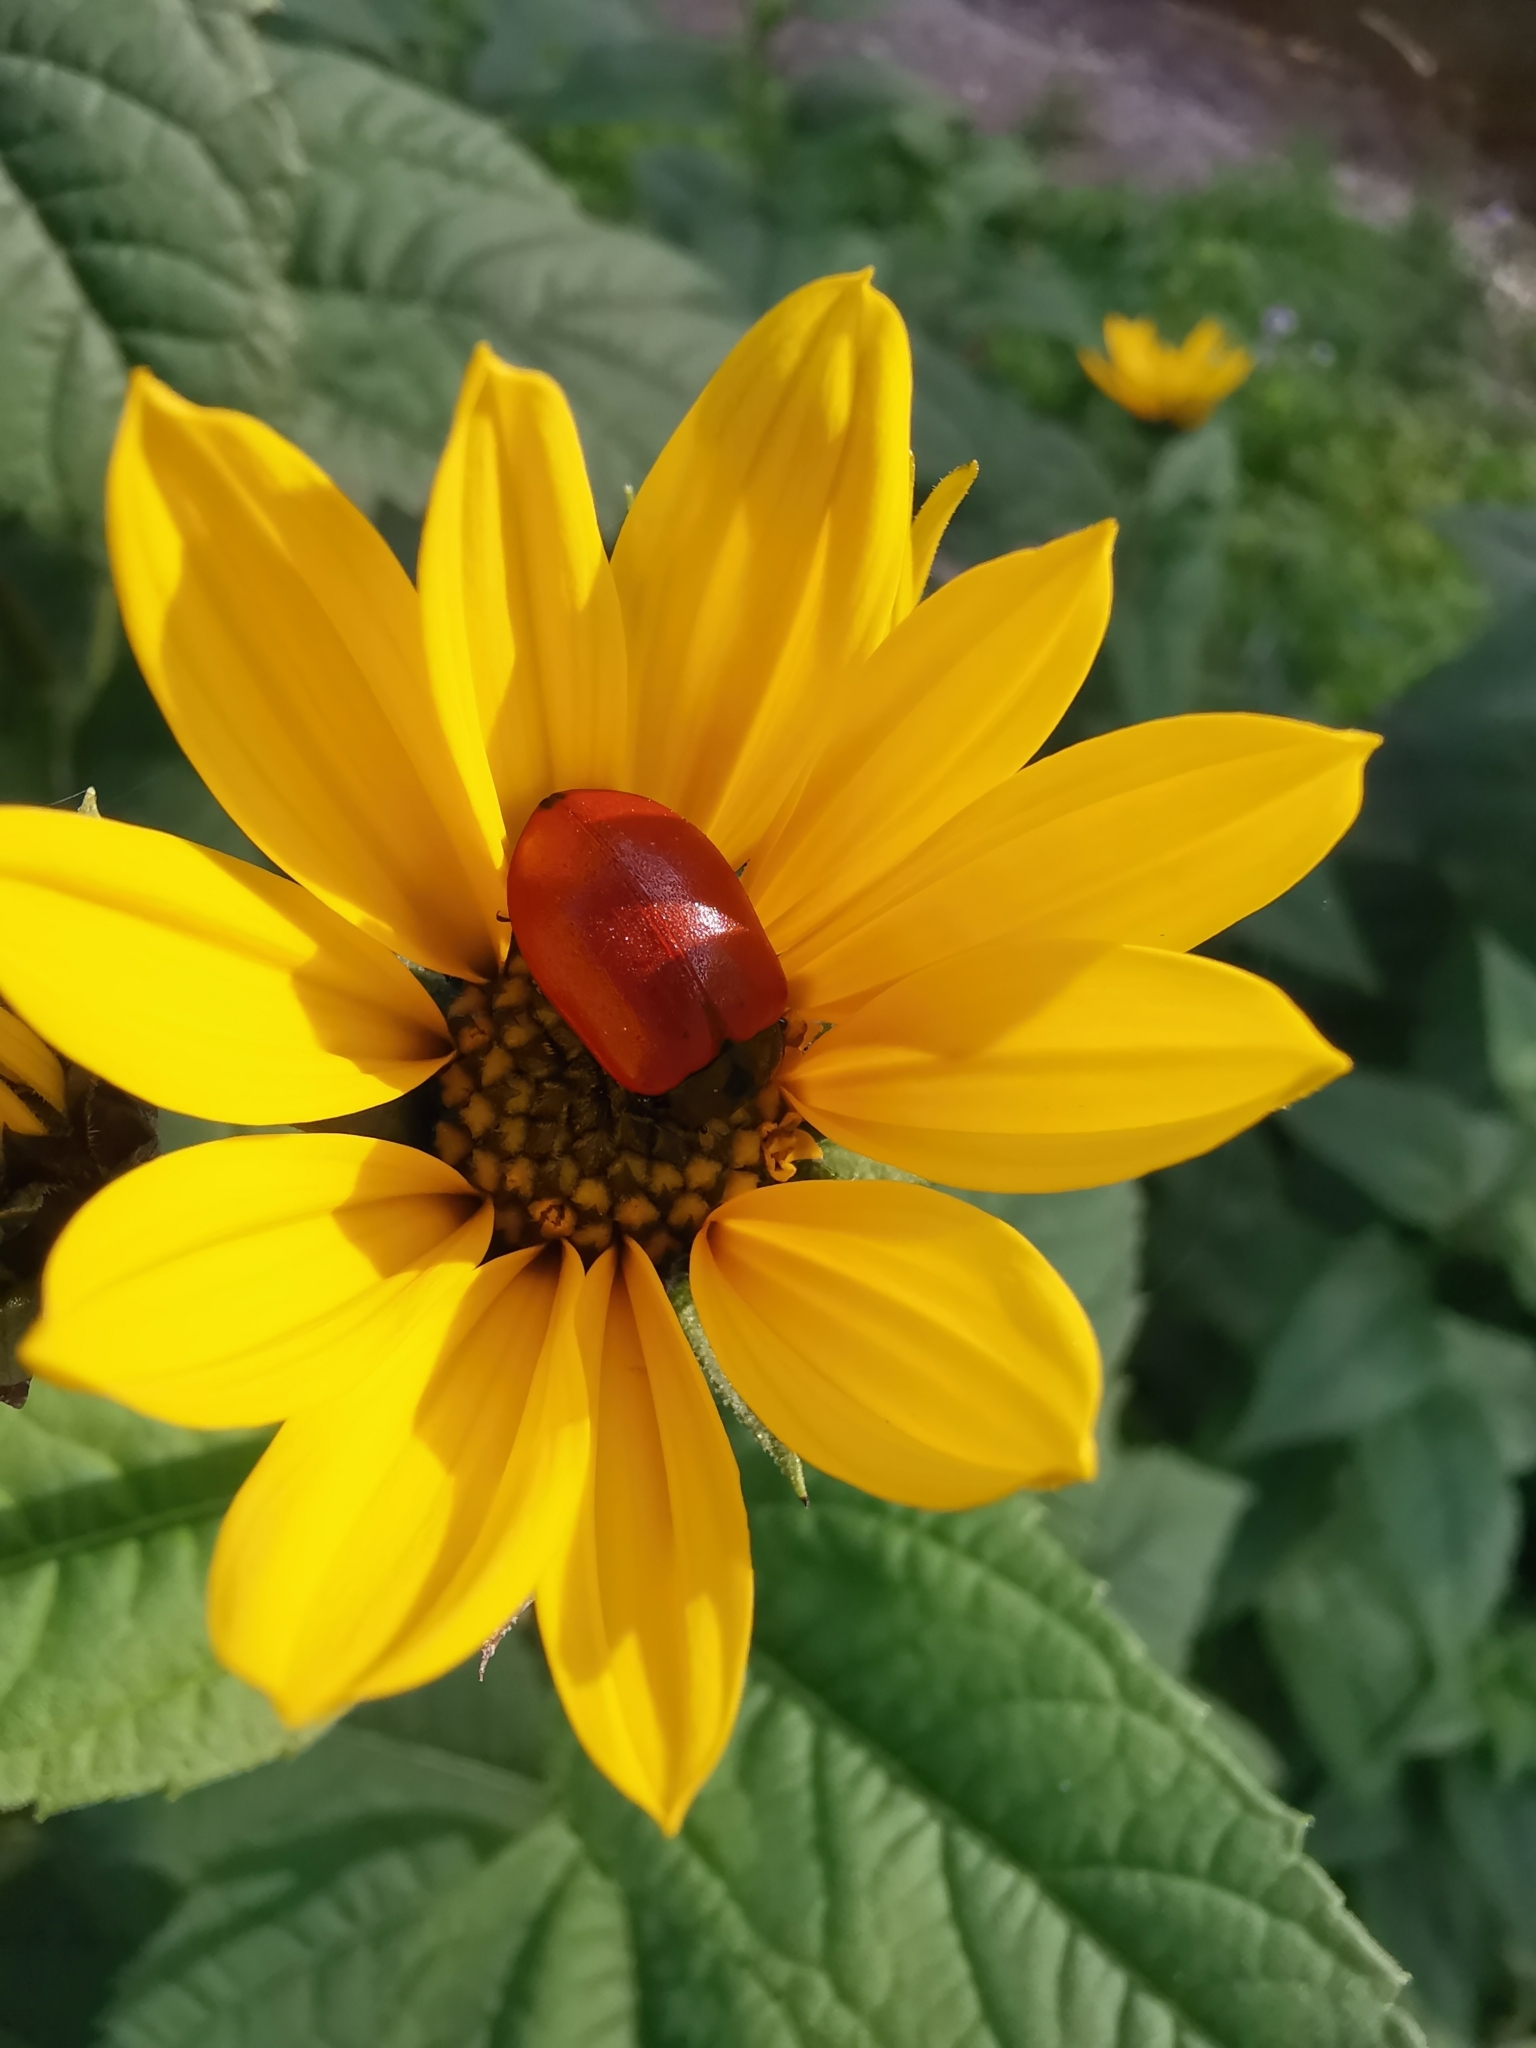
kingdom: Animalia
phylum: Arthropoda
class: Insecta
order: Coleoptera
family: Chrysomelidae
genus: Chrysomela
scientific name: Chrysomela populi
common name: Red poplar leaf beetle
